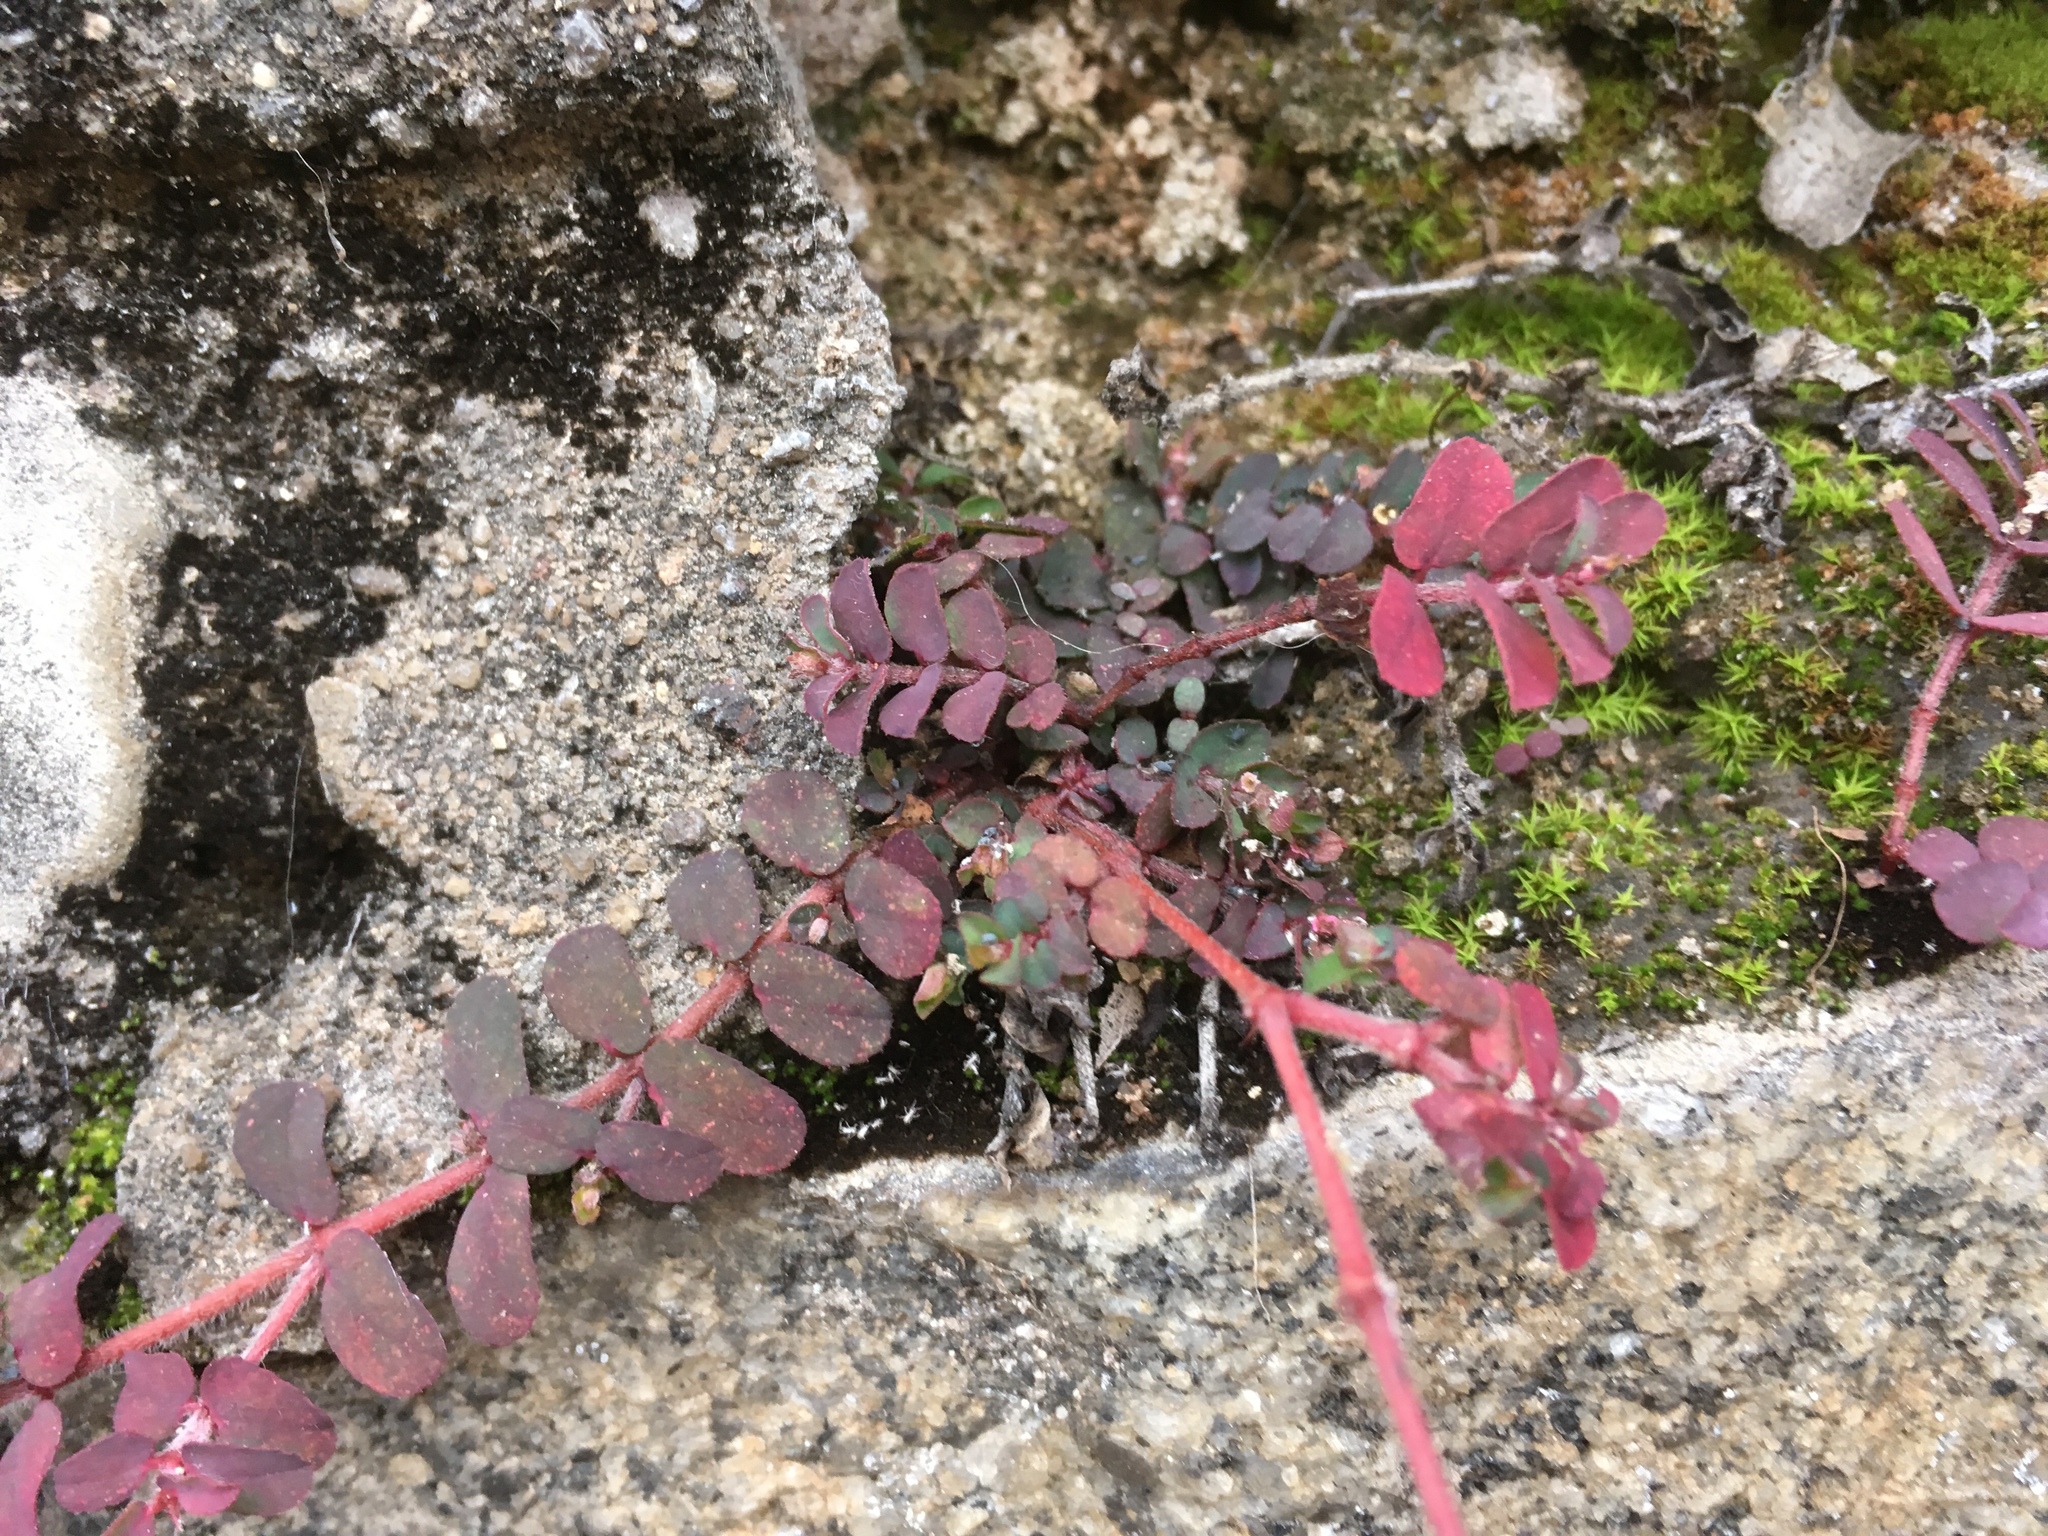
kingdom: Plantae
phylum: Tracheophyta
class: Magnoliopsida
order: Malpighiales
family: Euphorbiaceae
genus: Euphorbia
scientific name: Euphorbia maculata
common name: Spotted spurge
